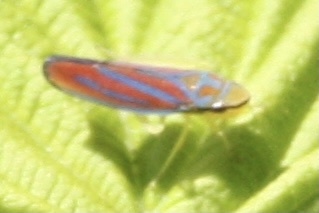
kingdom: Animalia
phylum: Arthropoda
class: Insecta
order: Hemiptera
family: Cicadellidae
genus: Graphocephala
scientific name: Graphocephala coccinea
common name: Candy-striped leafhopper
